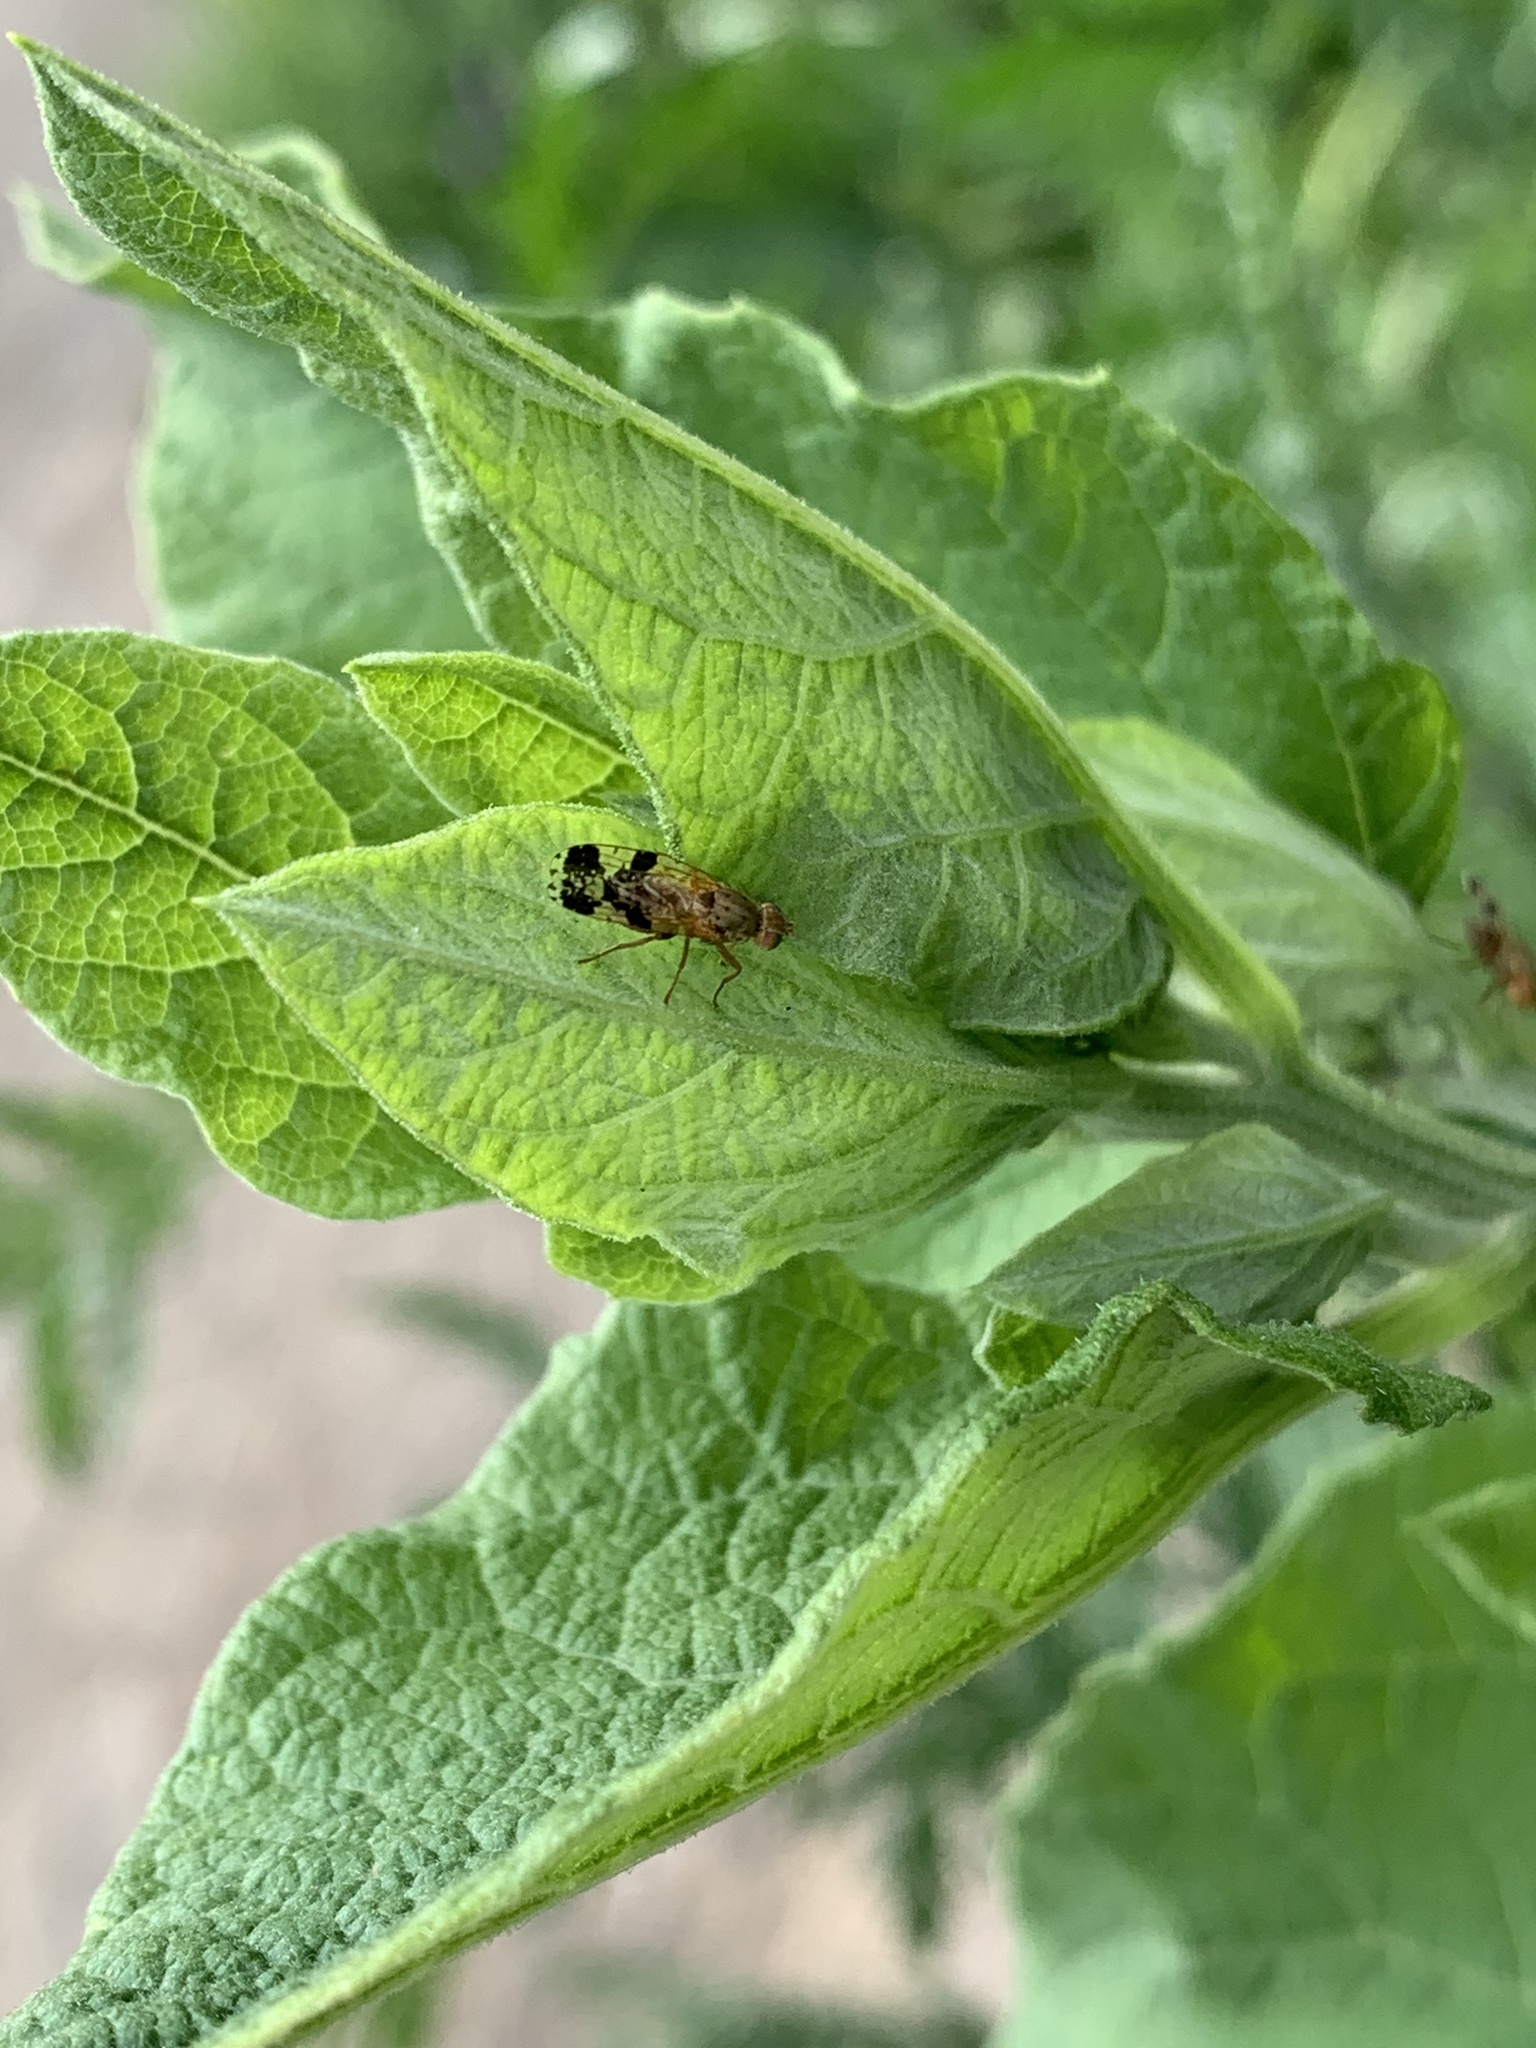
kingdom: Animalia
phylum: Arthropoda
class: Insecta
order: Diptera
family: Tephritidae
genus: Tephritis
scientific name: Tephritis bardanae
